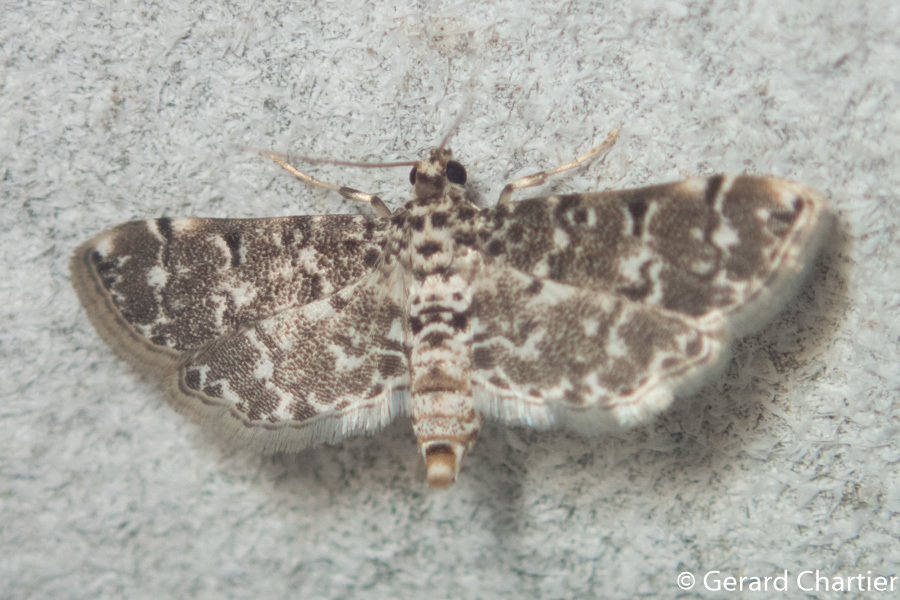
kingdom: Animalia
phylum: Arthropoda
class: Insecta
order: Lepidoptera
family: Crambidae
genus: Metoeca
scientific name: Metoeca foedalis
